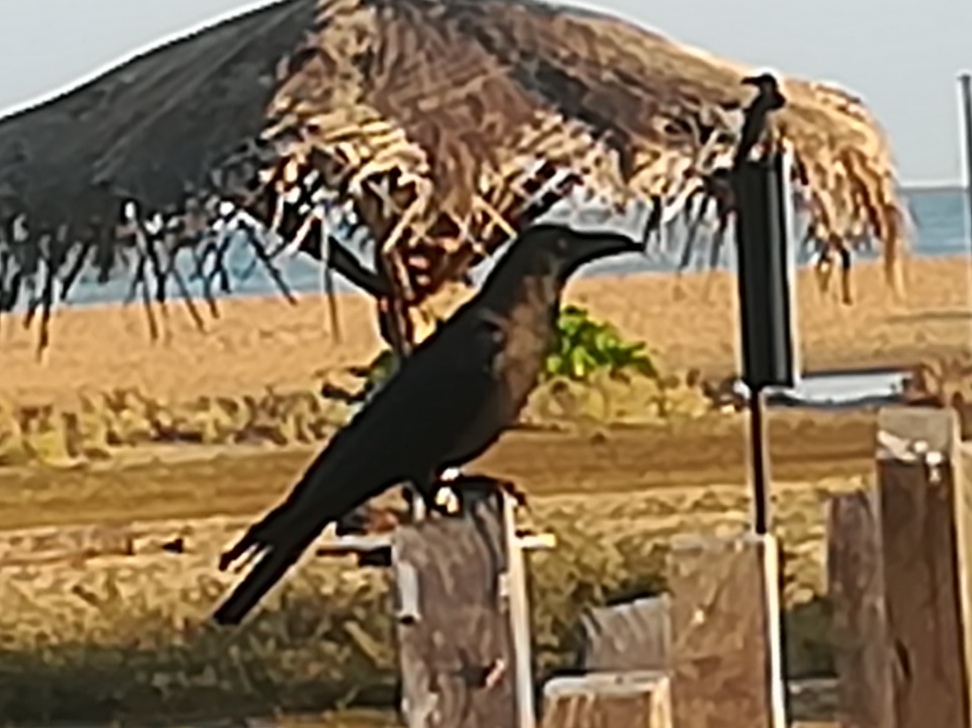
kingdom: Animalia
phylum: Chordata
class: Aves
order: Passeriformes
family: Corvidae
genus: Corvus
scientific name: Corvus splendens
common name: House crow
